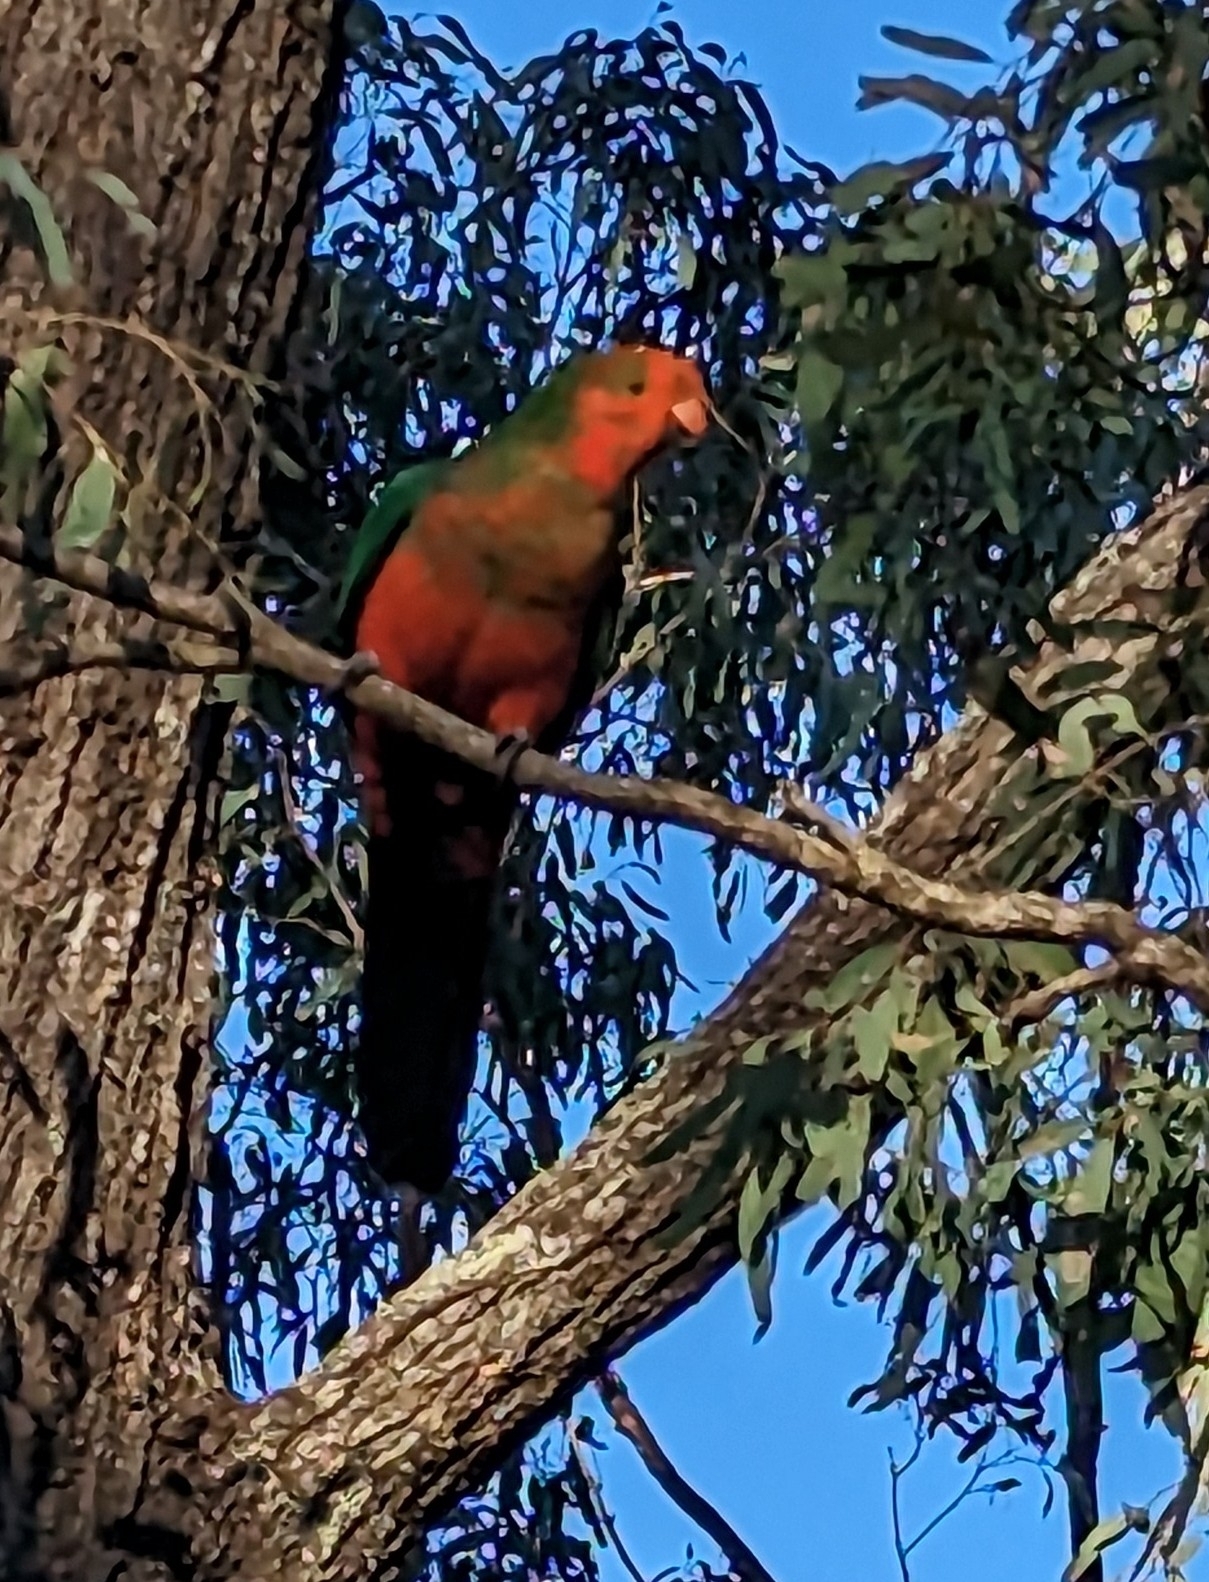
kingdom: Animalia
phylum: Chordata
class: Aves
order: Psittaciformes
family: Psittacidae
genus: Alisterus
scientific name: Alisterus scapularis
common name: Australian king parrot
